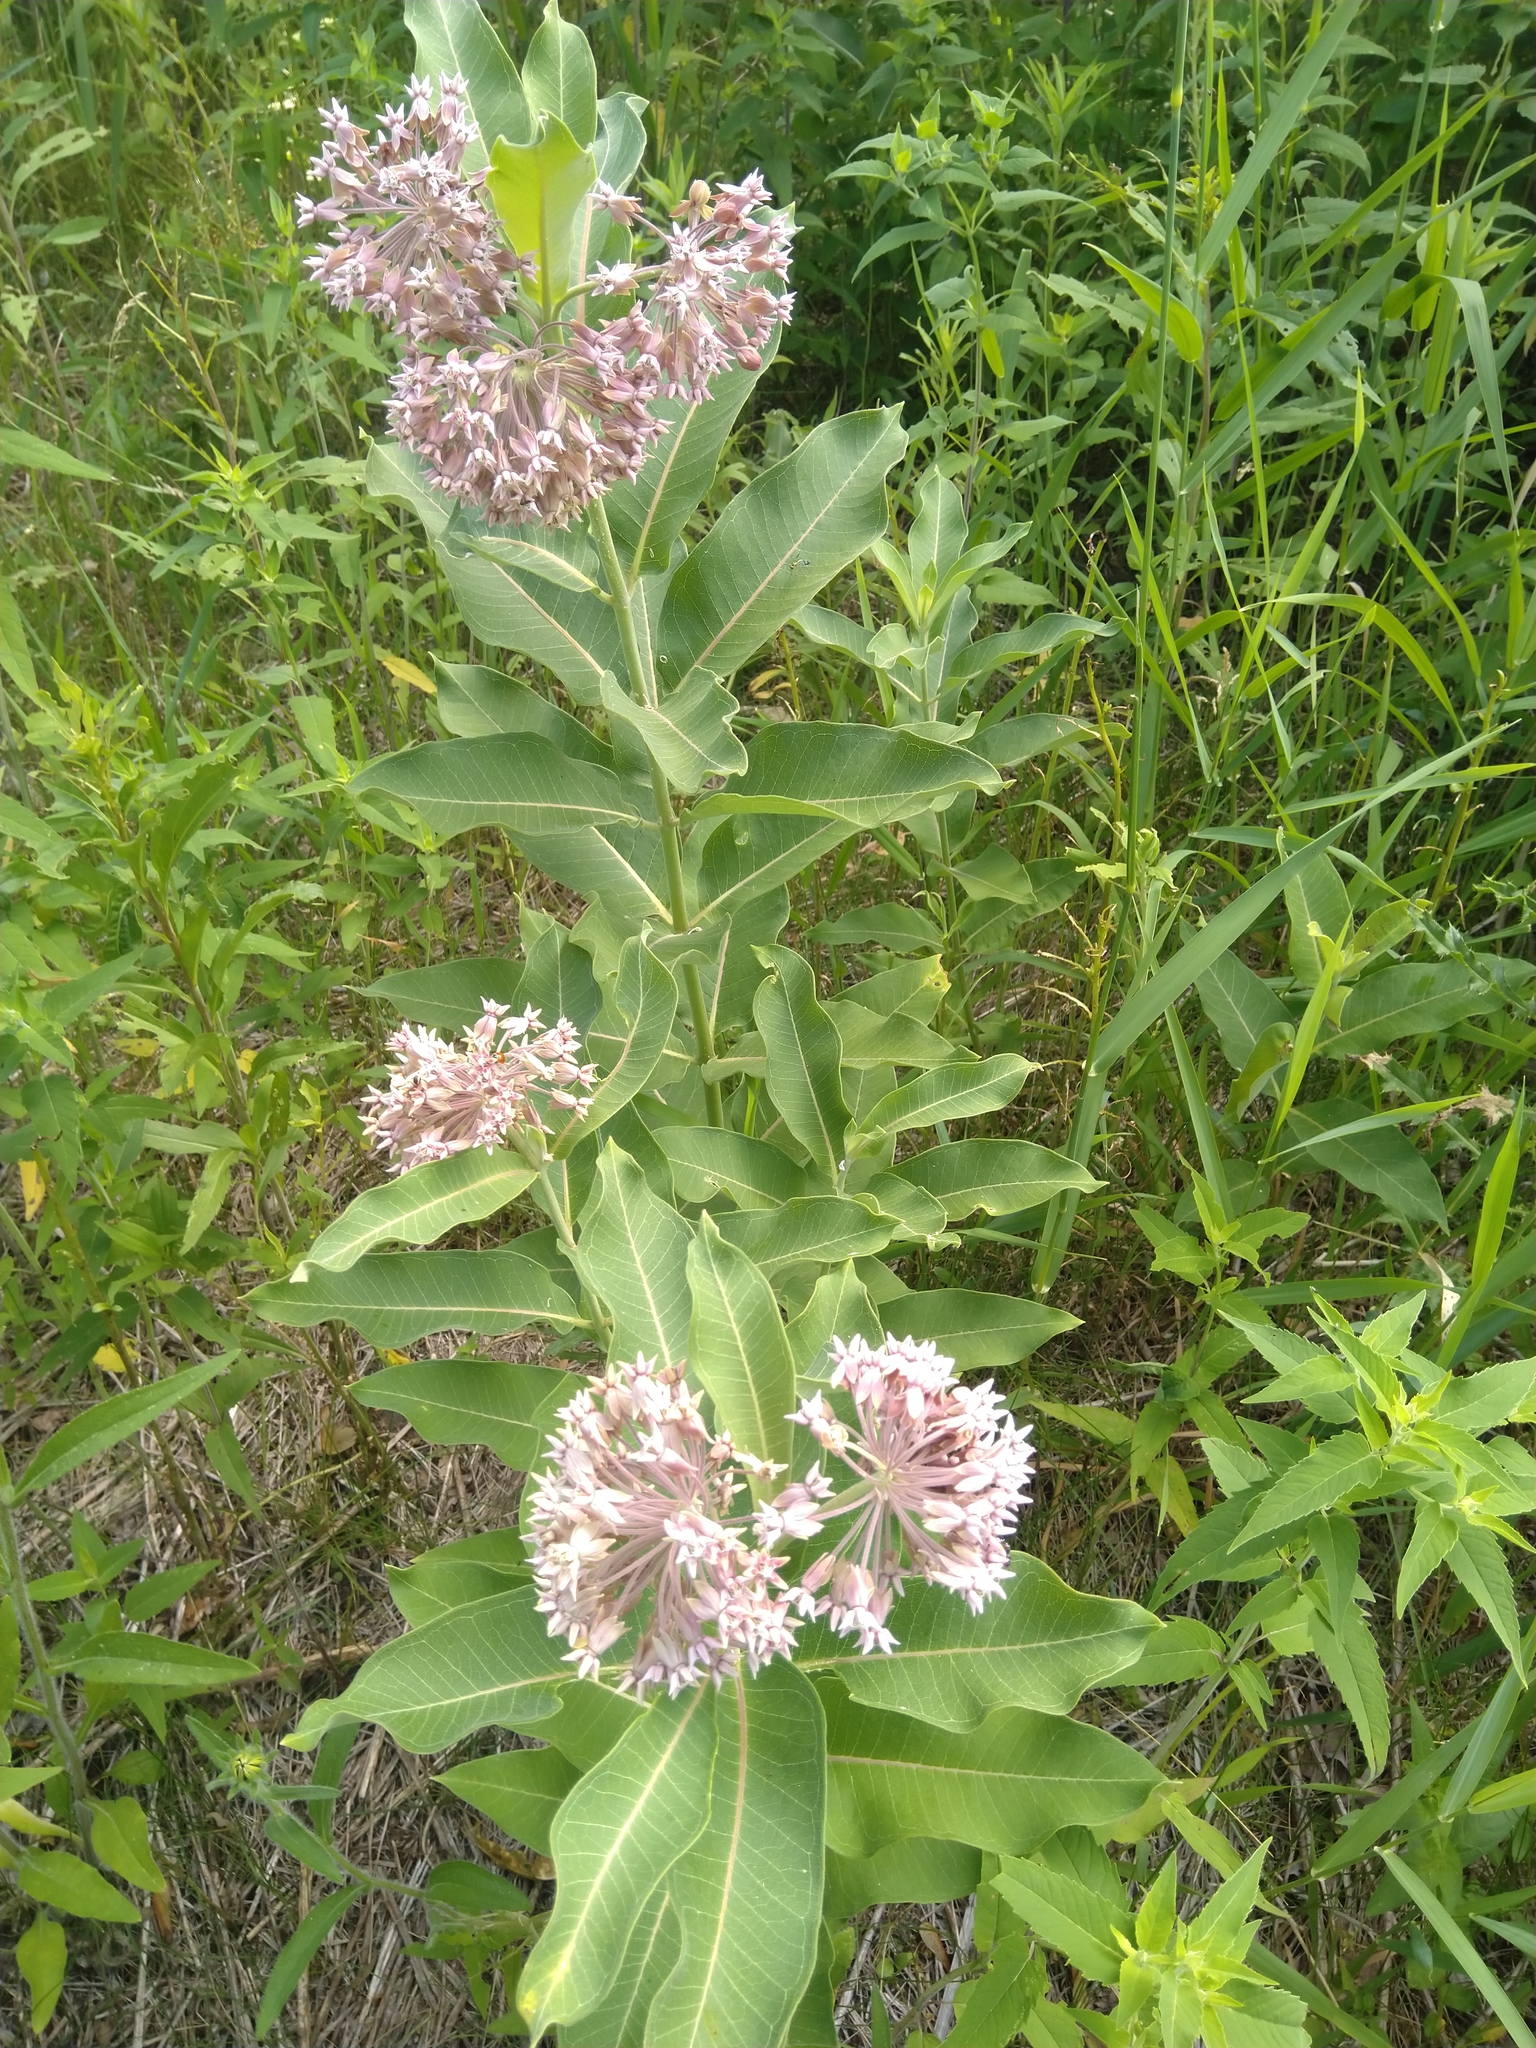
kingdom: Plantae
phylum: Tracheophyta
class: Magnoliopsida
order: Gentianales
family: Apocynaceae
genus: Asclepias
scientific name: Asclepias syriaca
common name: Common milkweed
